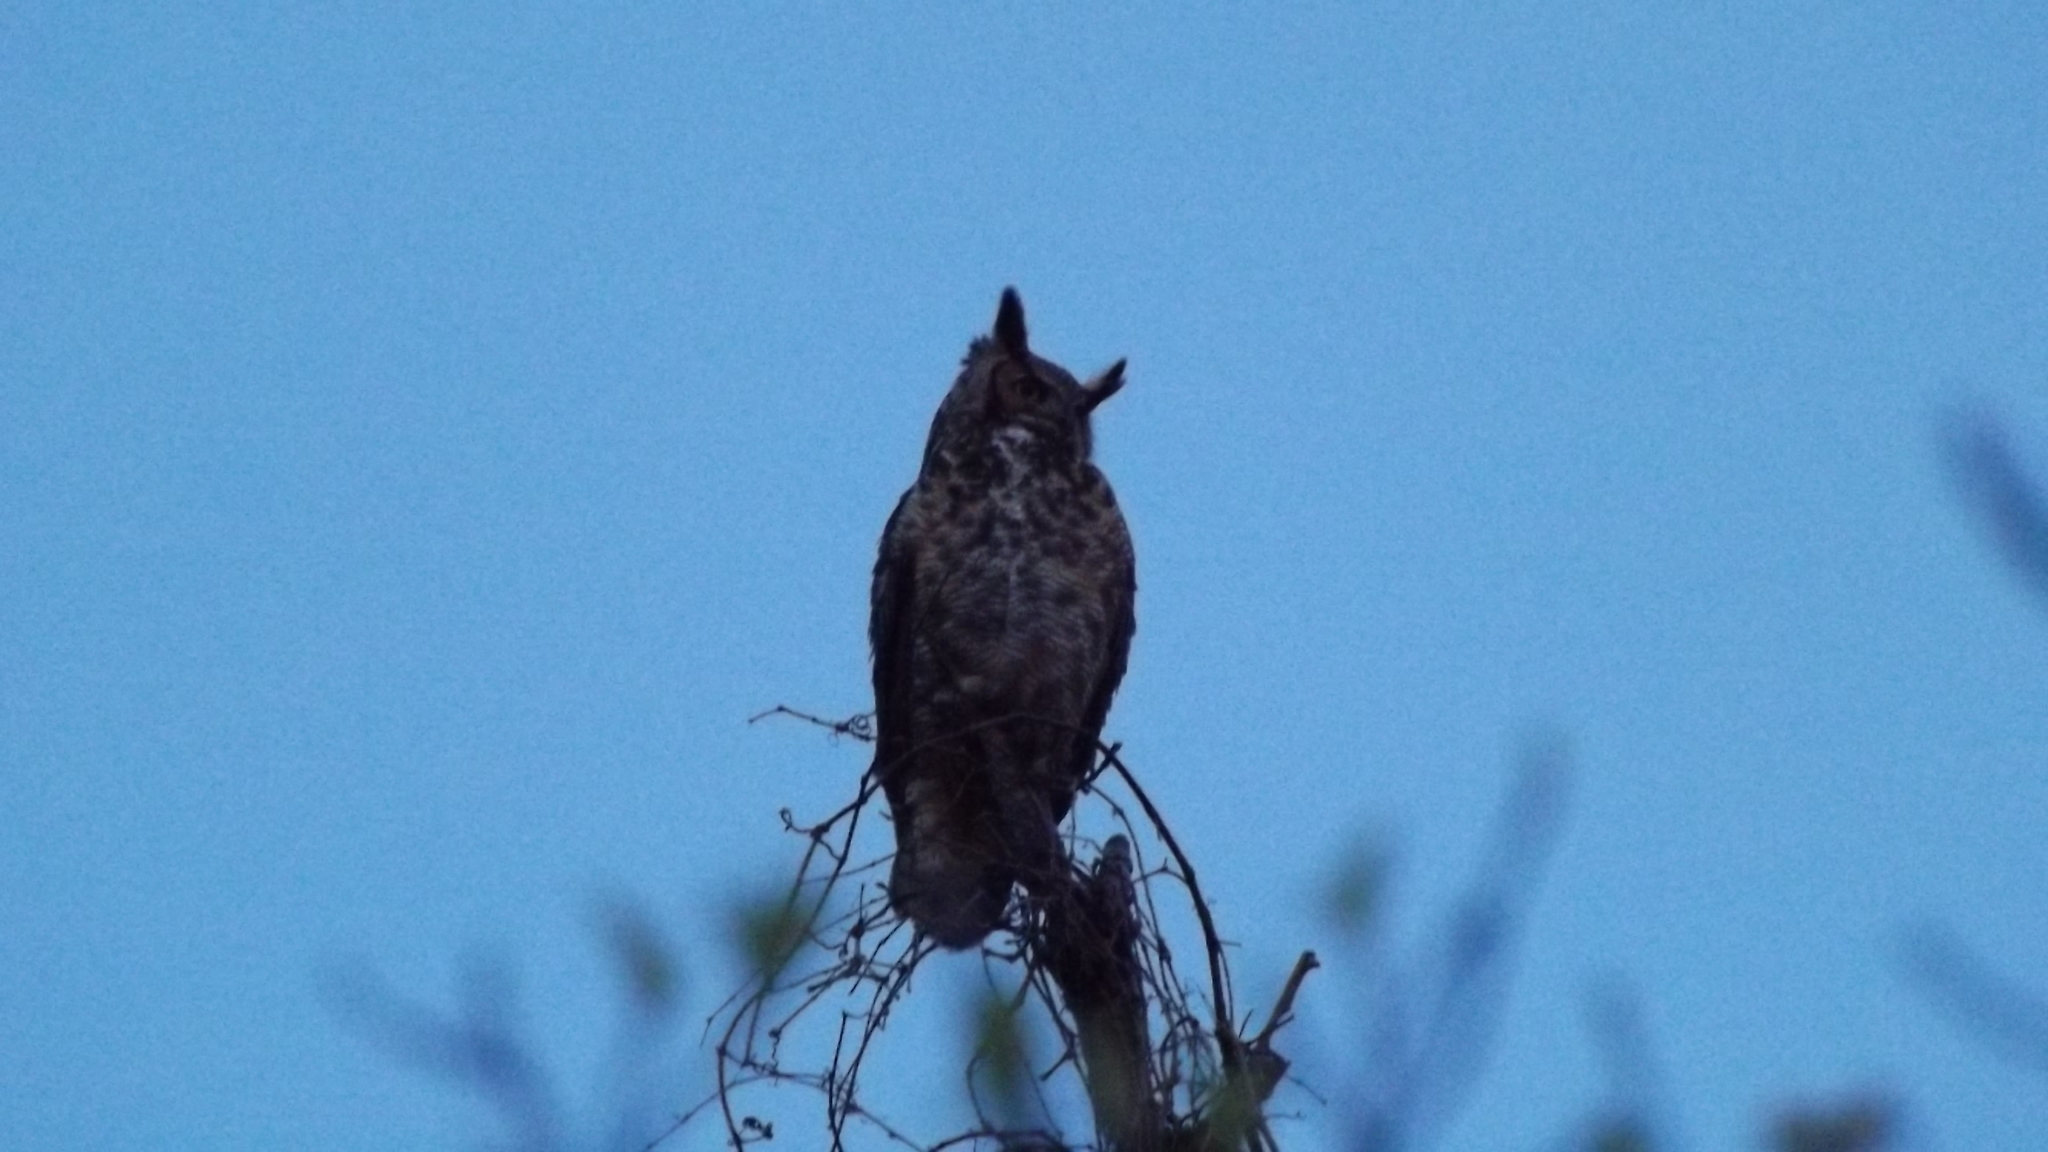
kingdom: Animalia
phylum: Chordata
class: Aves
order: Strigiformes
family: Strigidae
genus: Bubo
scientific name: Bubo virginianus
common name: Great horned owl
